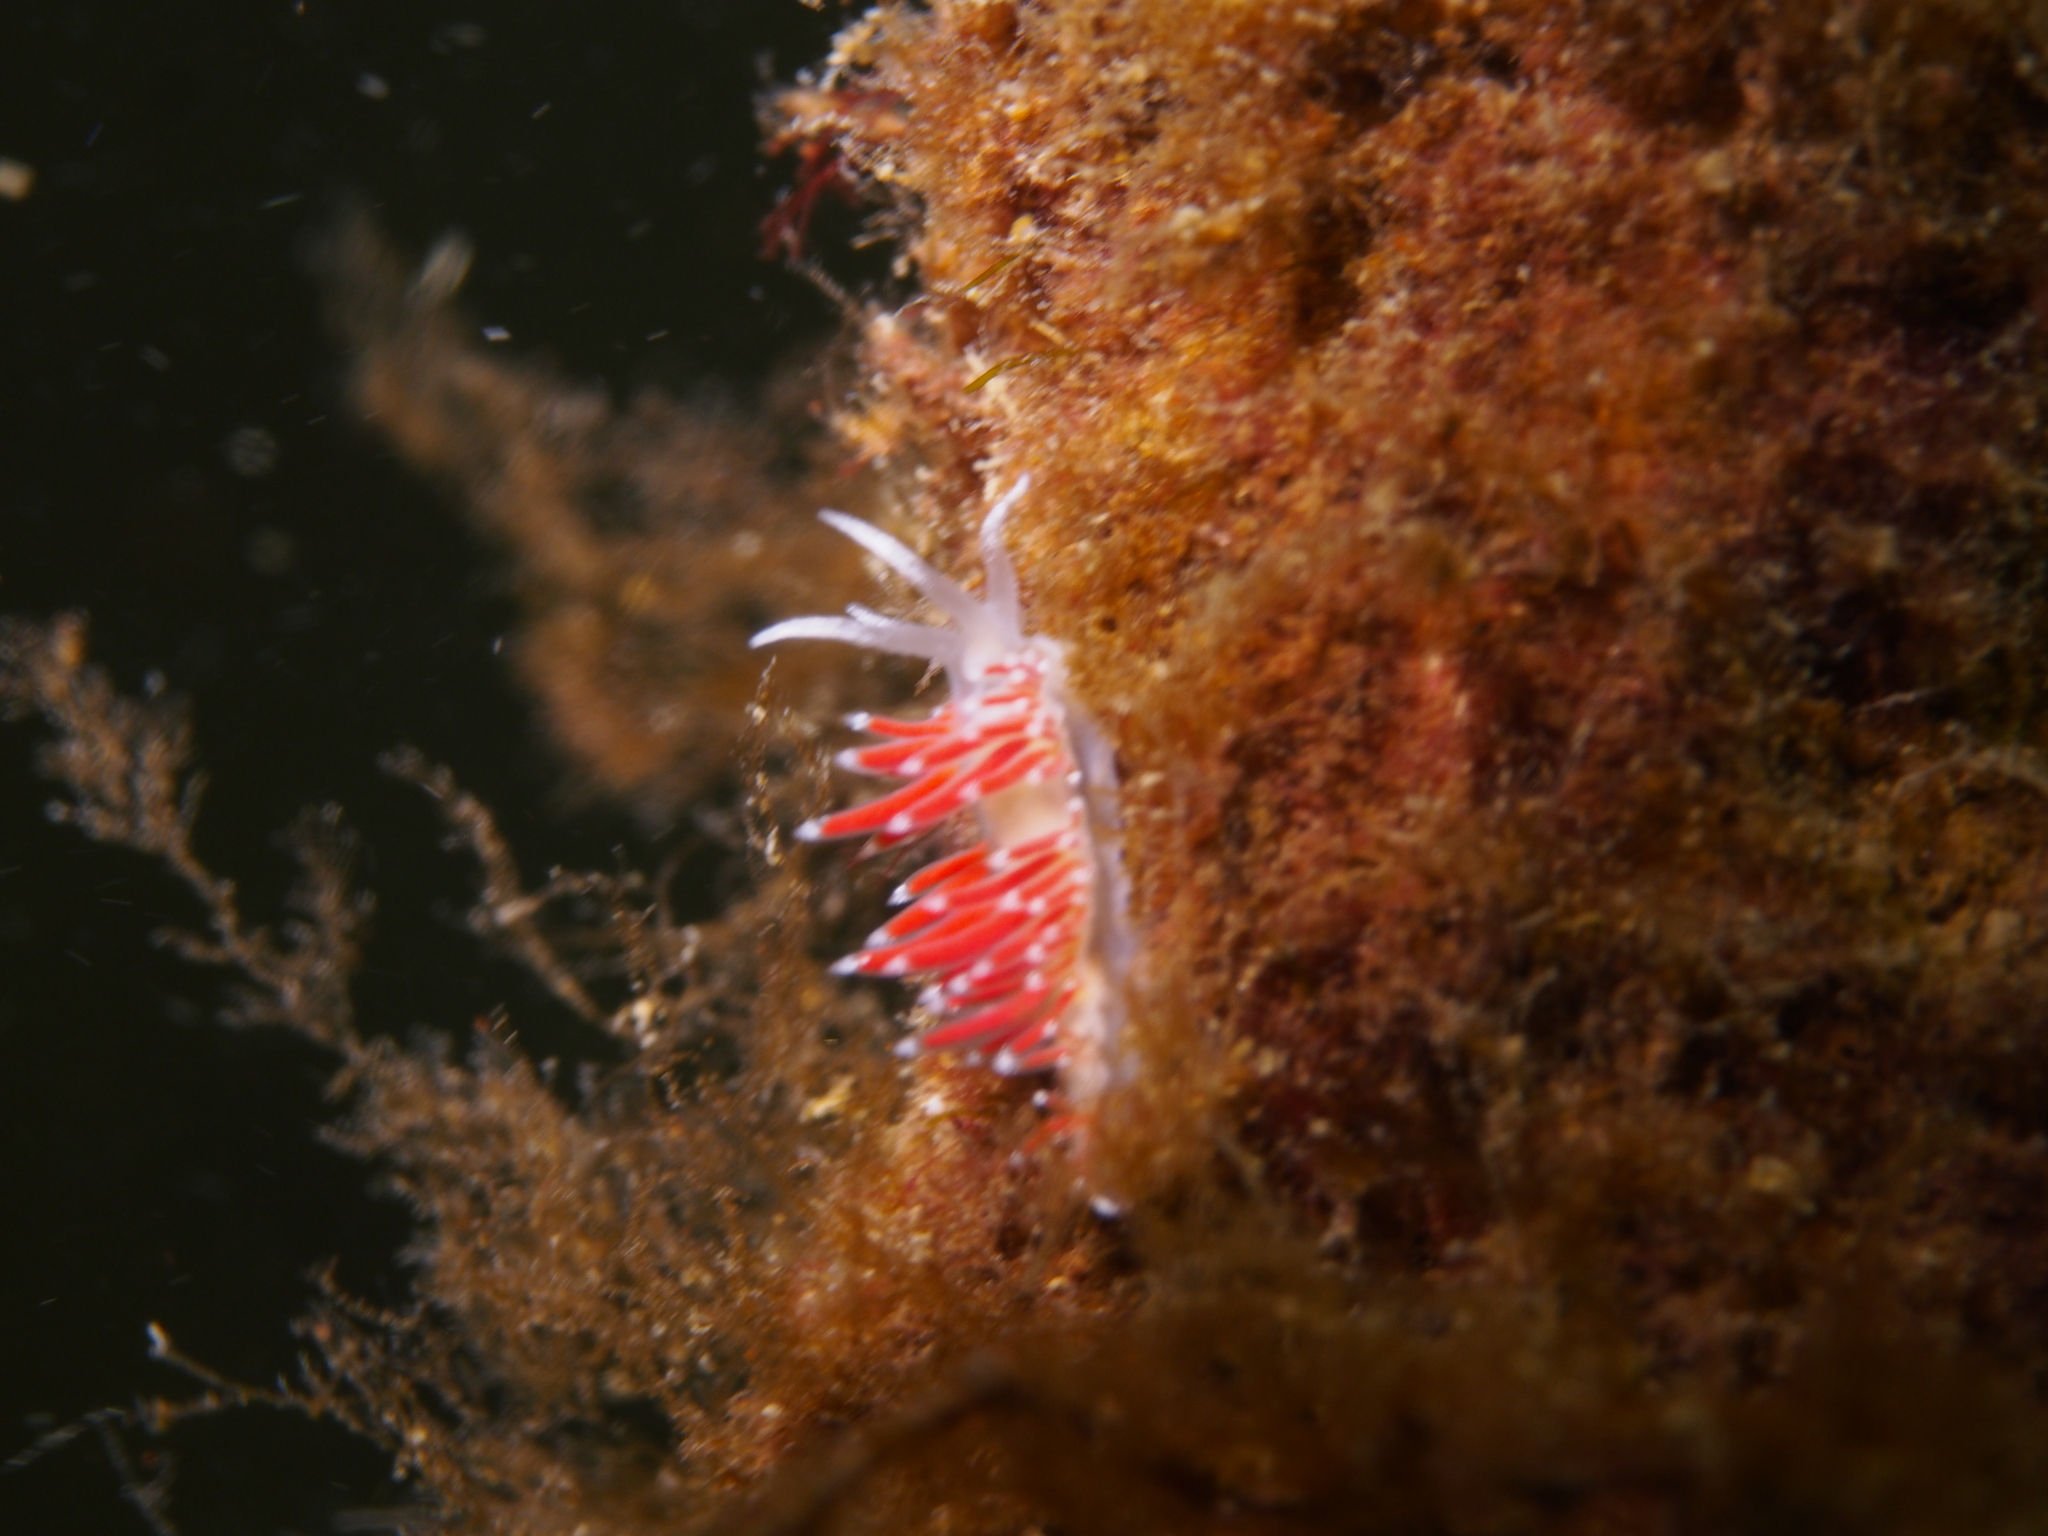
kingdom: Animalia
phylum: Mollusca
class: Gastropoda
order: Nudibranchia
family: Coryphellidae
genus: Coryphella
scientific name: Coryphella gracilis
